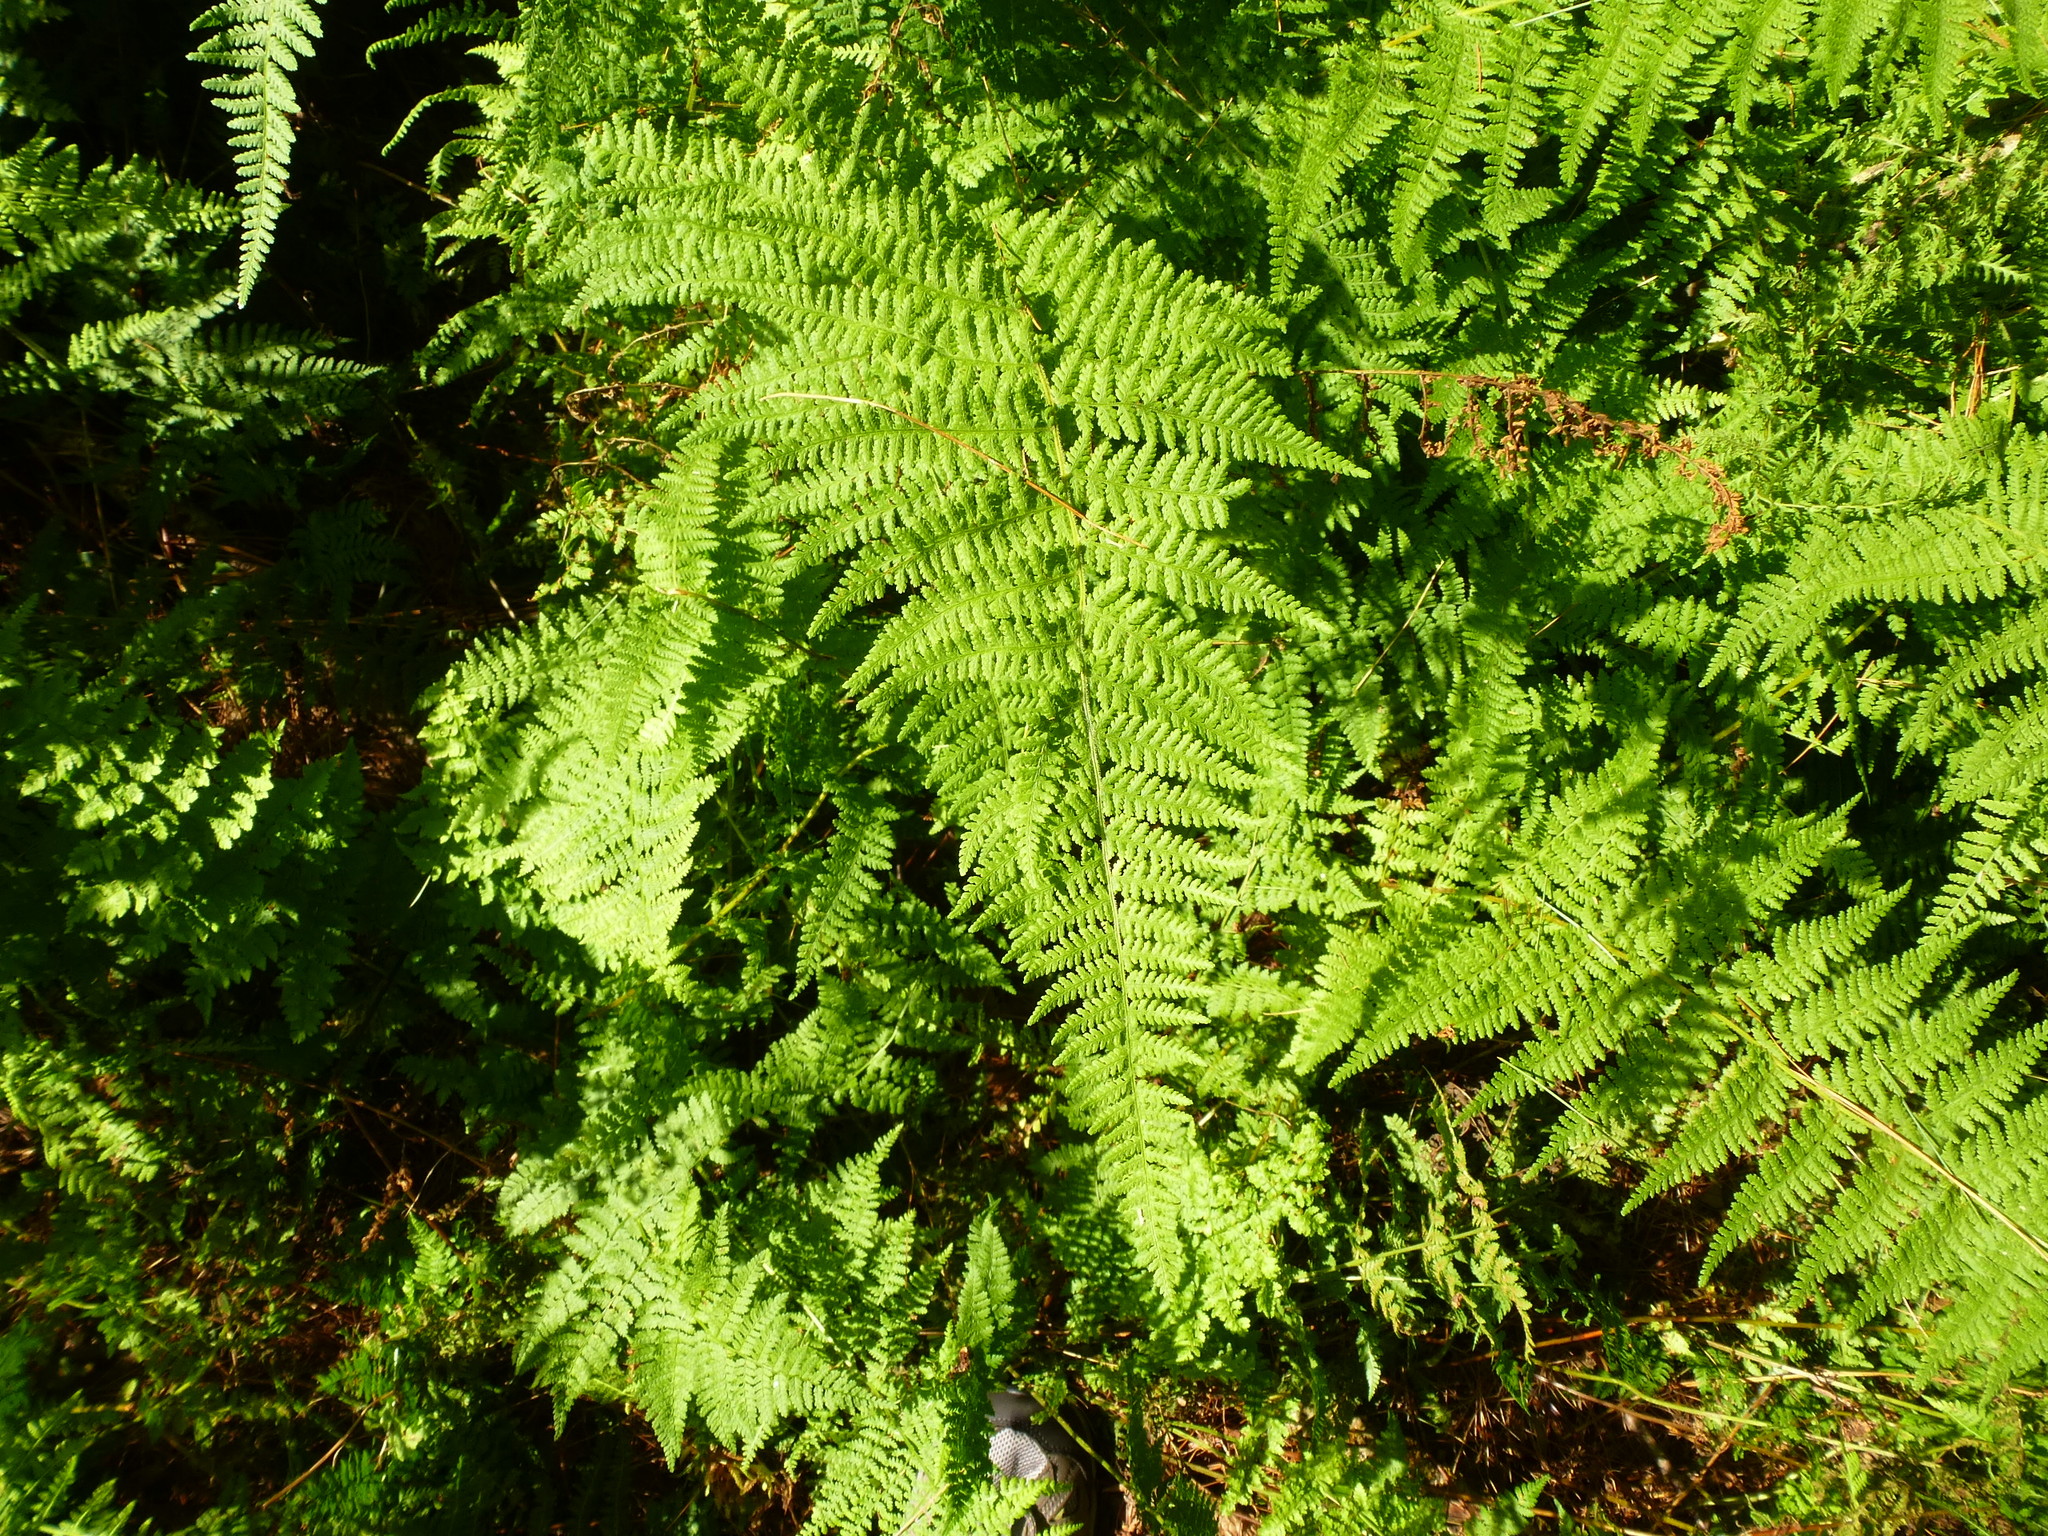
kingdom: Plantae
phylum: Tracheophyta
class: Polypodiopsida
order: Polypodiales
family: Dennstaedtiaceae
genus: Sitobolium
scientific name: Sitobolium punctilobum
